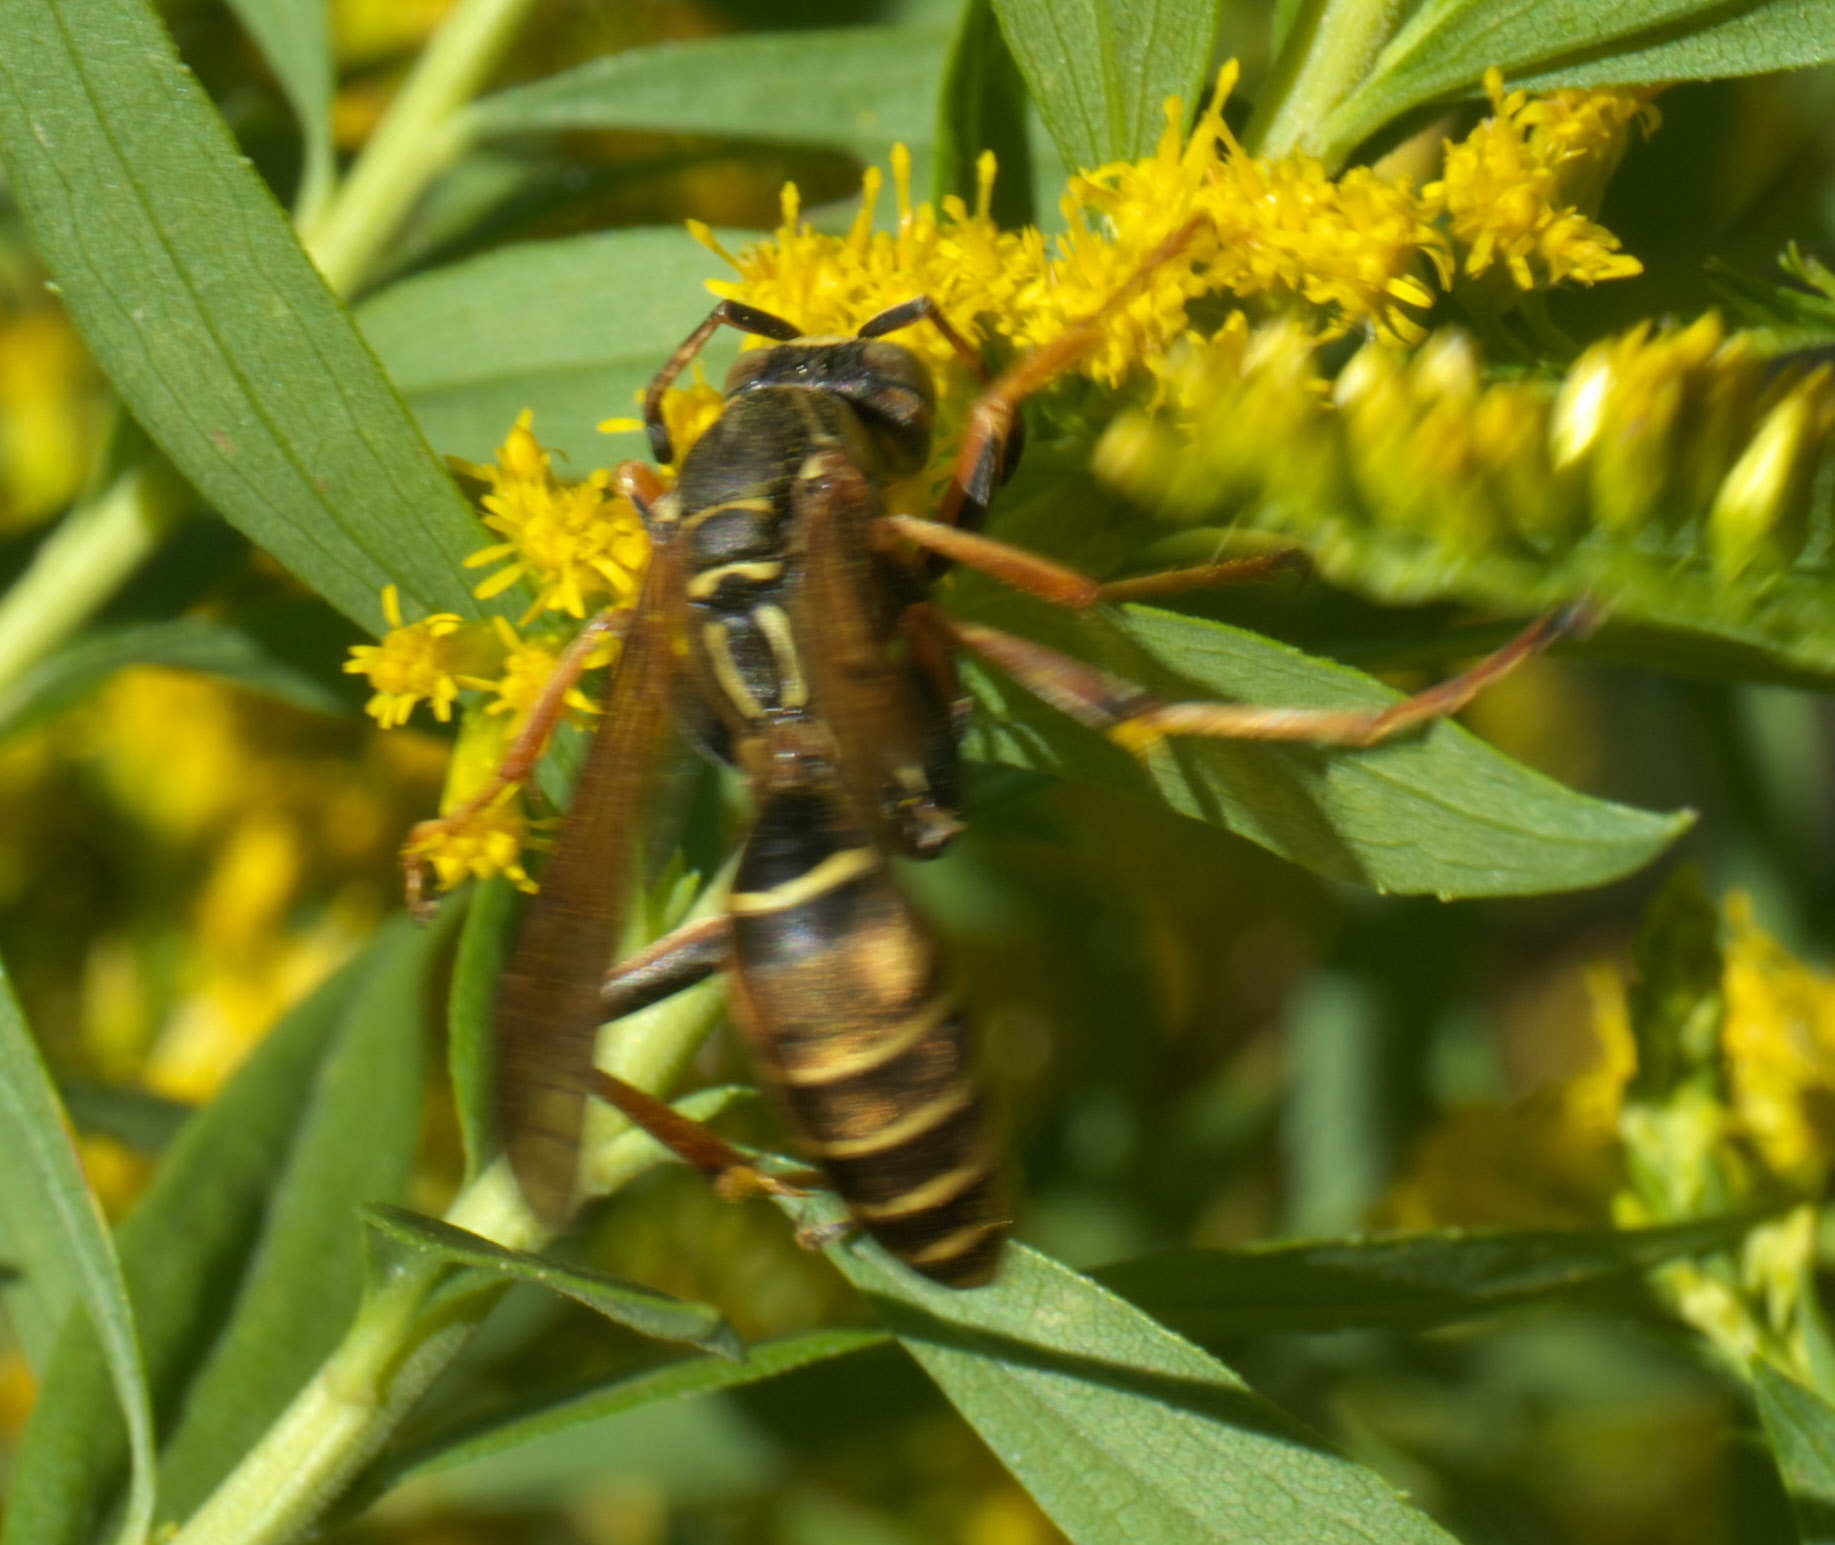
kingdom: Animalia
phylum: Arthropoda
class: Insecta
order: Hymenoptera
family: Eumenidae
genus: Polistes
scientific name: Polistes fuscatus
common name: Dark paper wasp
